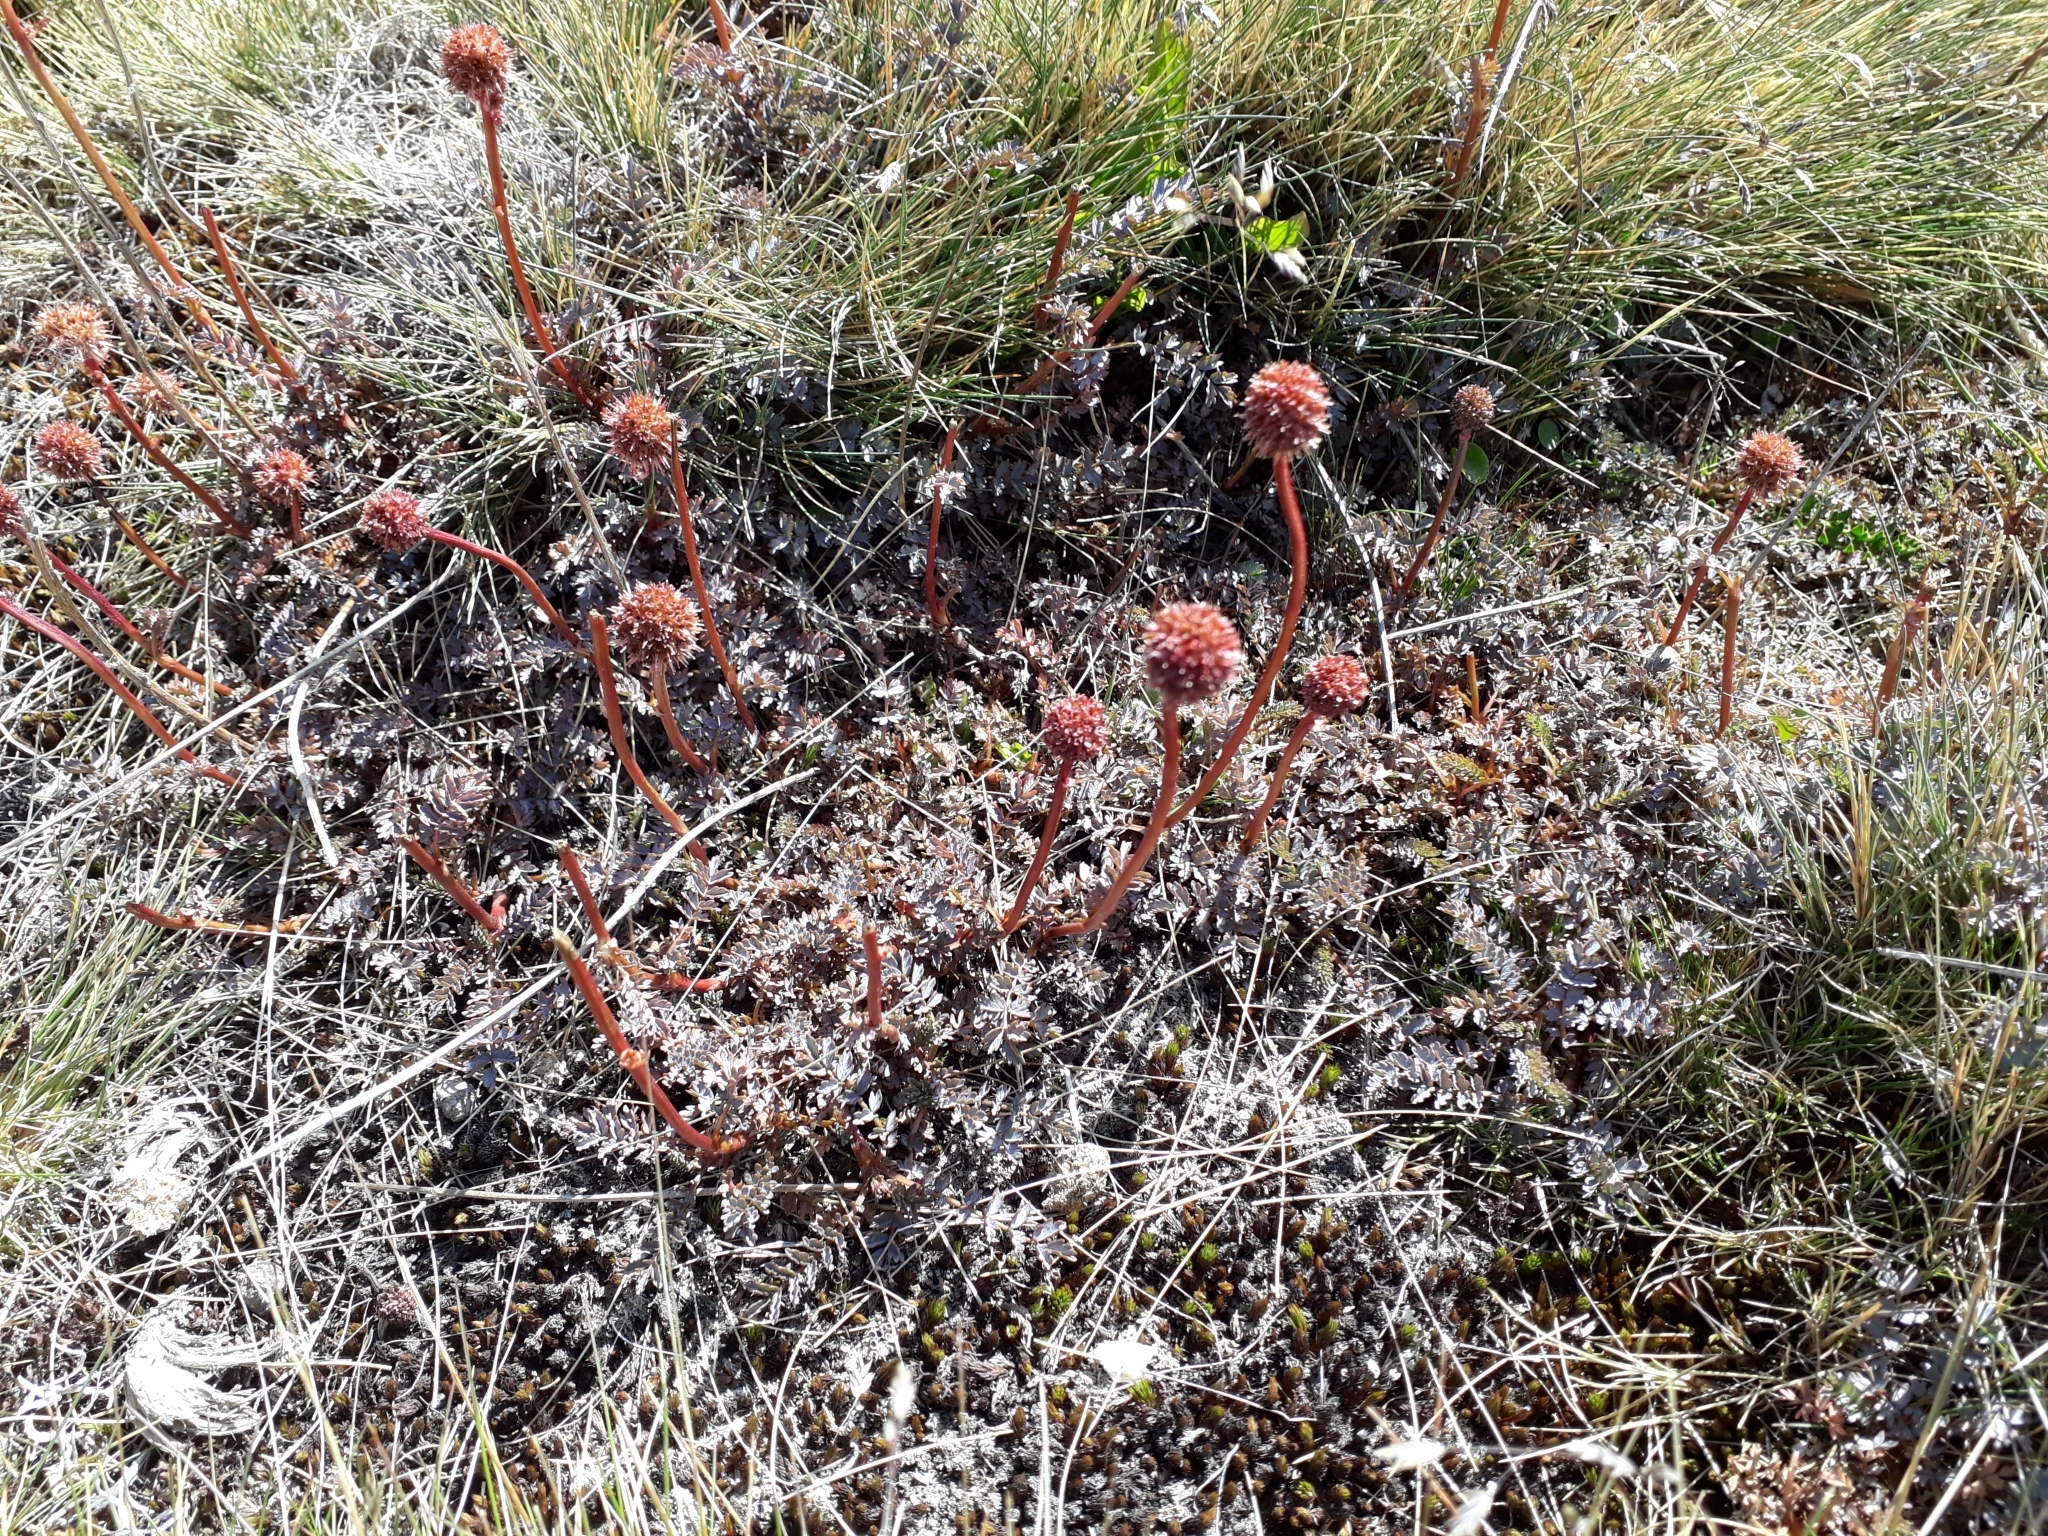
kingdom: Plantae
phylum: Tracheophyta
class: Magnoliopsida
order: Rosales
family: Rosaceae
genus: Acaena
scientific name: Acaena saccaticupula
